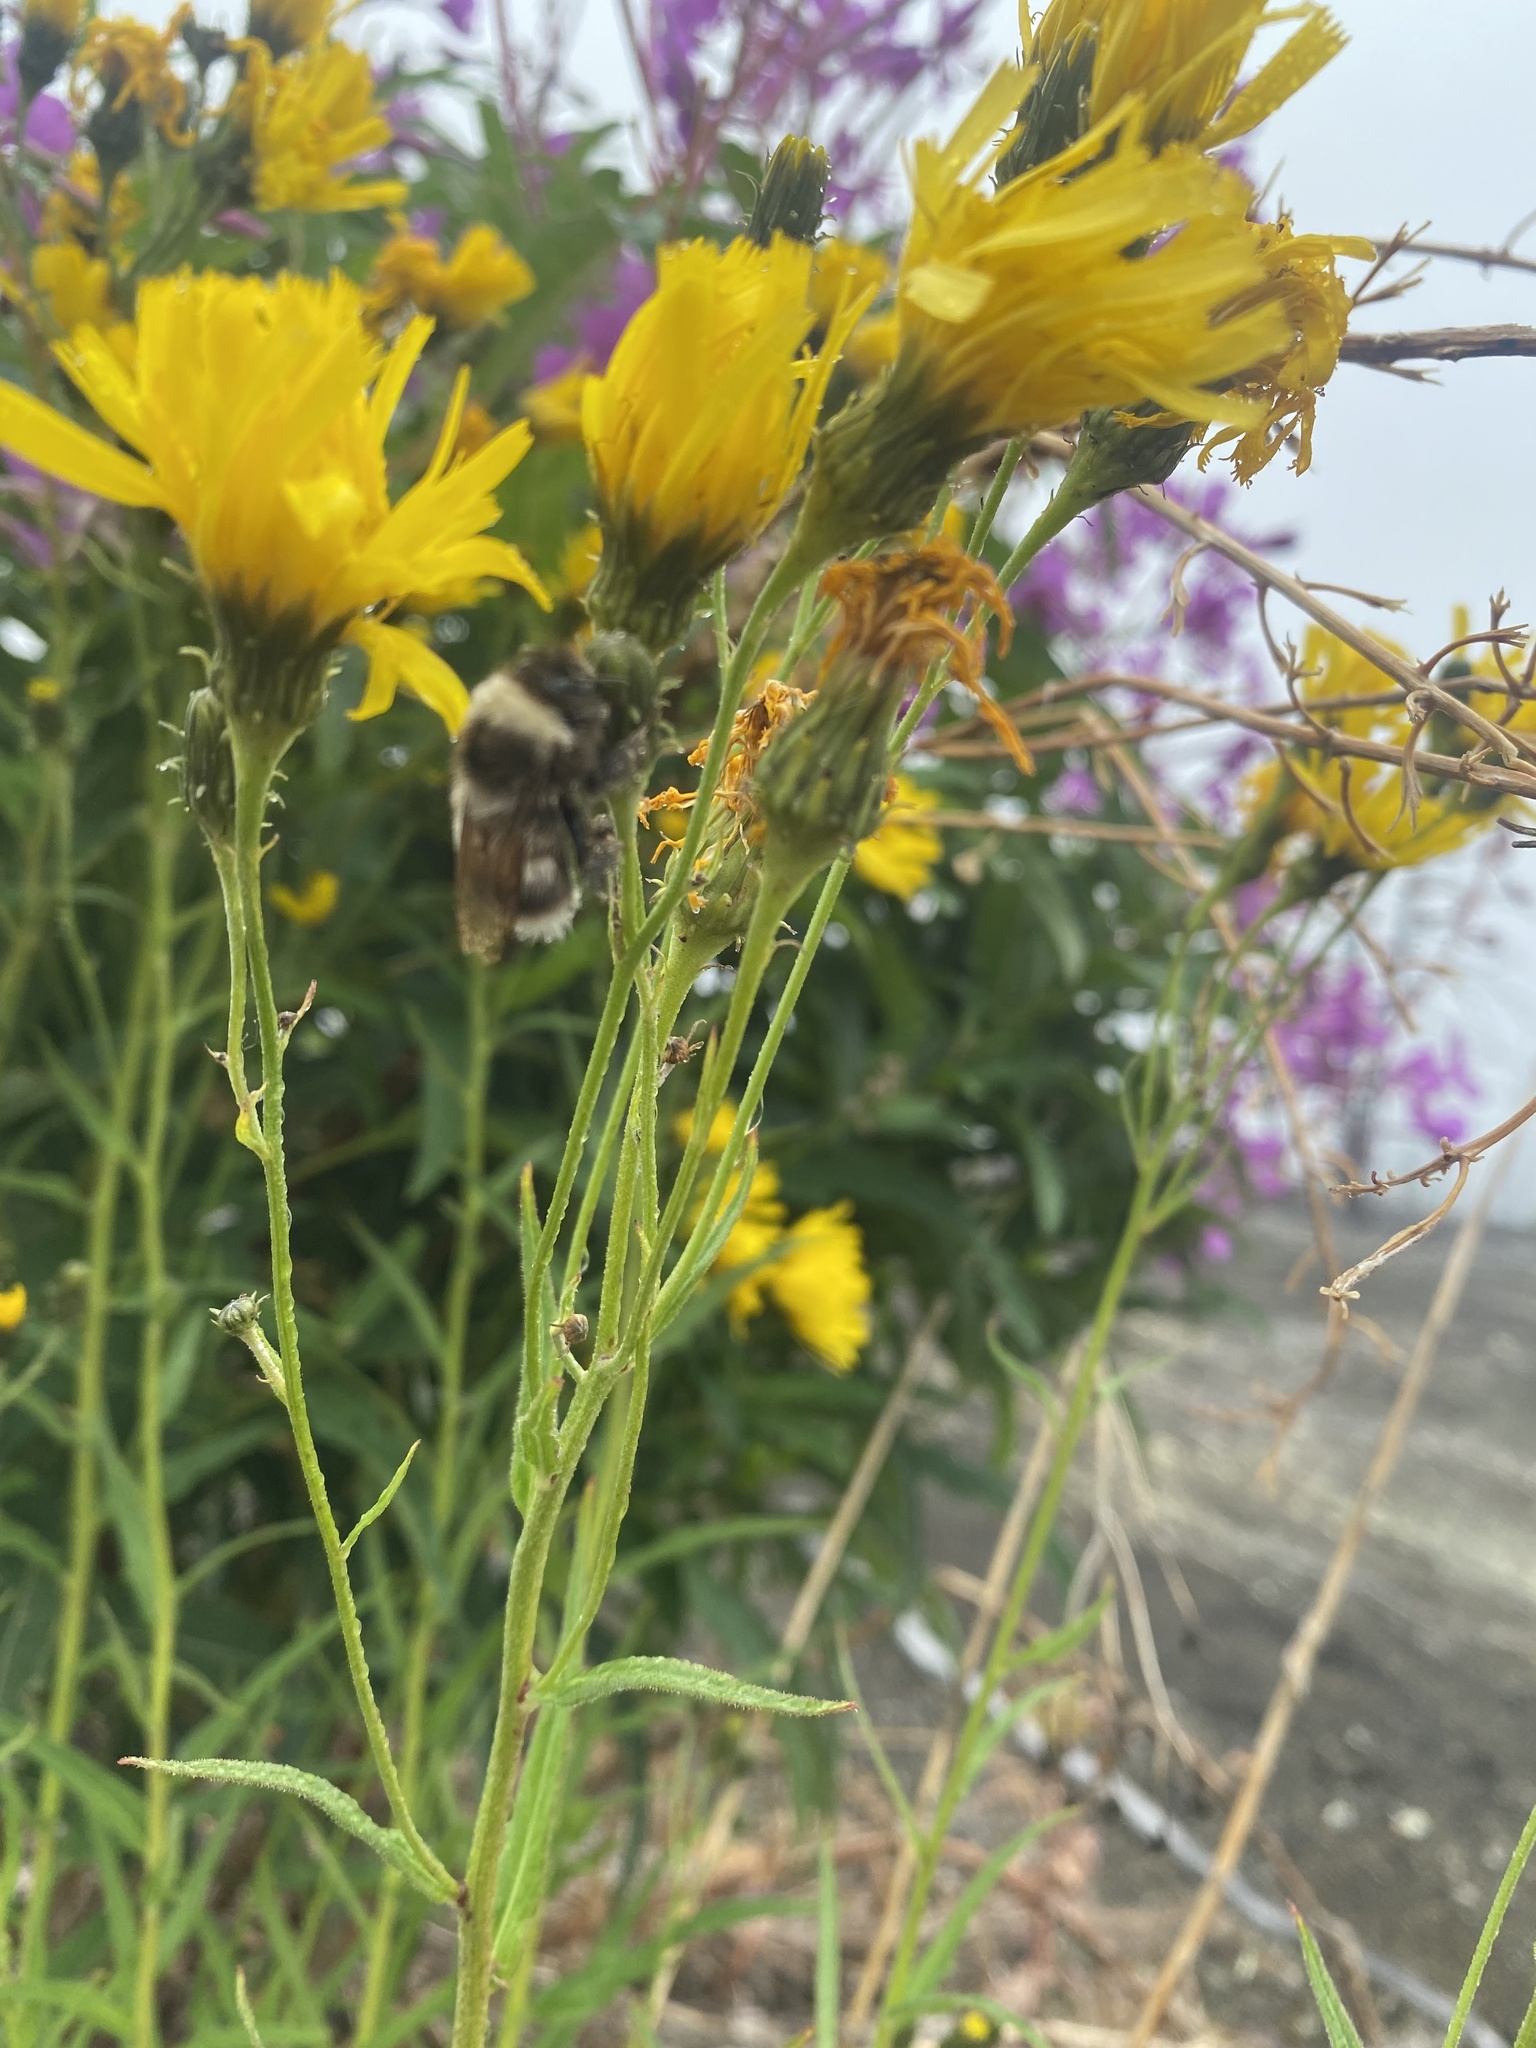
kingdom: Plantae
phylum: Tracheophyta
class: Magnoliopsida
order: Asterales
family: Asteraceae
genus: Hieracium
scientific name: Hieracium umbellatum
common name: Northern hawkweed
